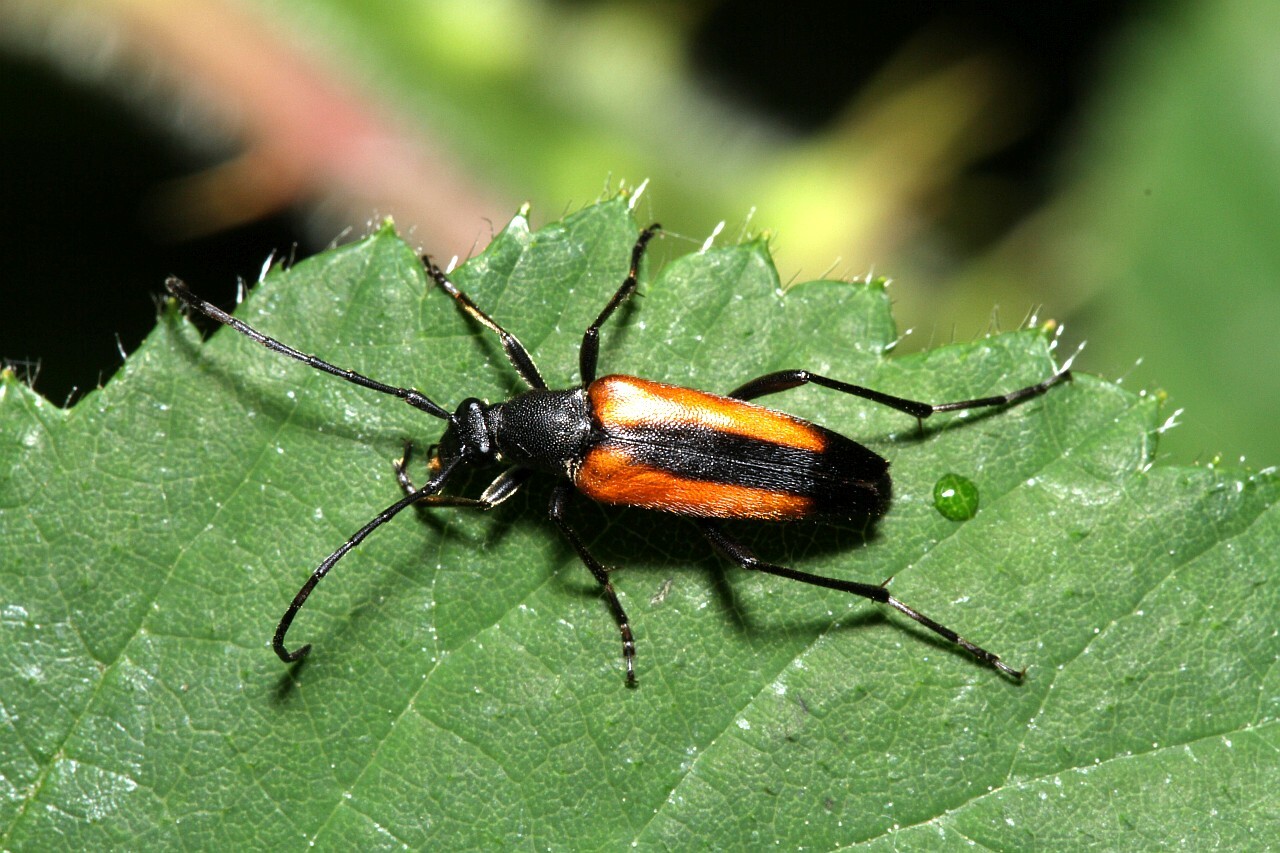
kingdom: Animalia
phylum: Arthropoda
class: Insecta
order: Coleoptera
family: Cerambycidae
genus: Stenurella
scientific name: Stenurella melanura
